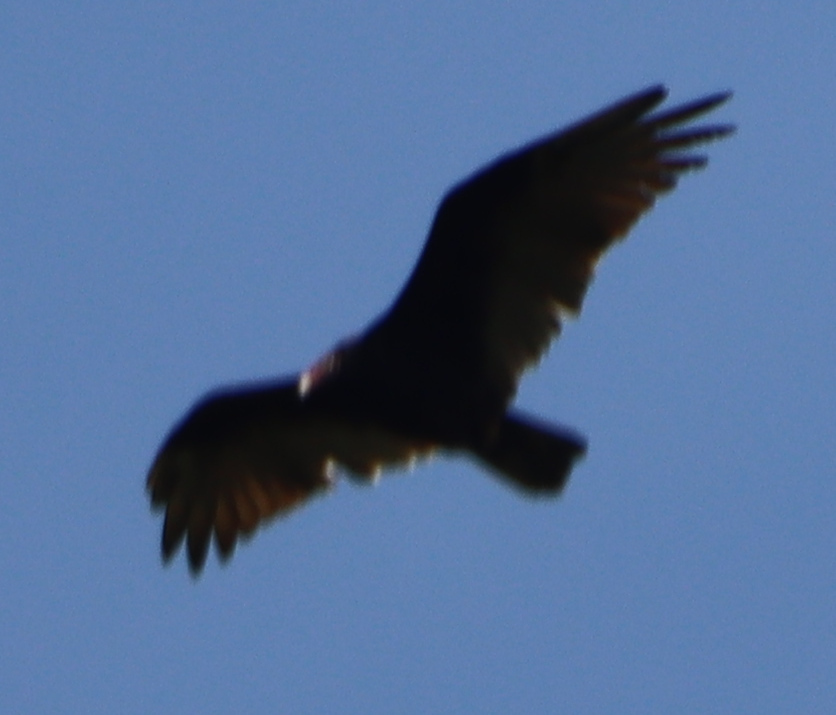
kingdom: Animalia
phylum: Chordata
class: Aves
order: Accipitriformes
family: Cathartidae
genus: Cathartes
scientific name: Cathartes aura
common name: Turkey vulture
